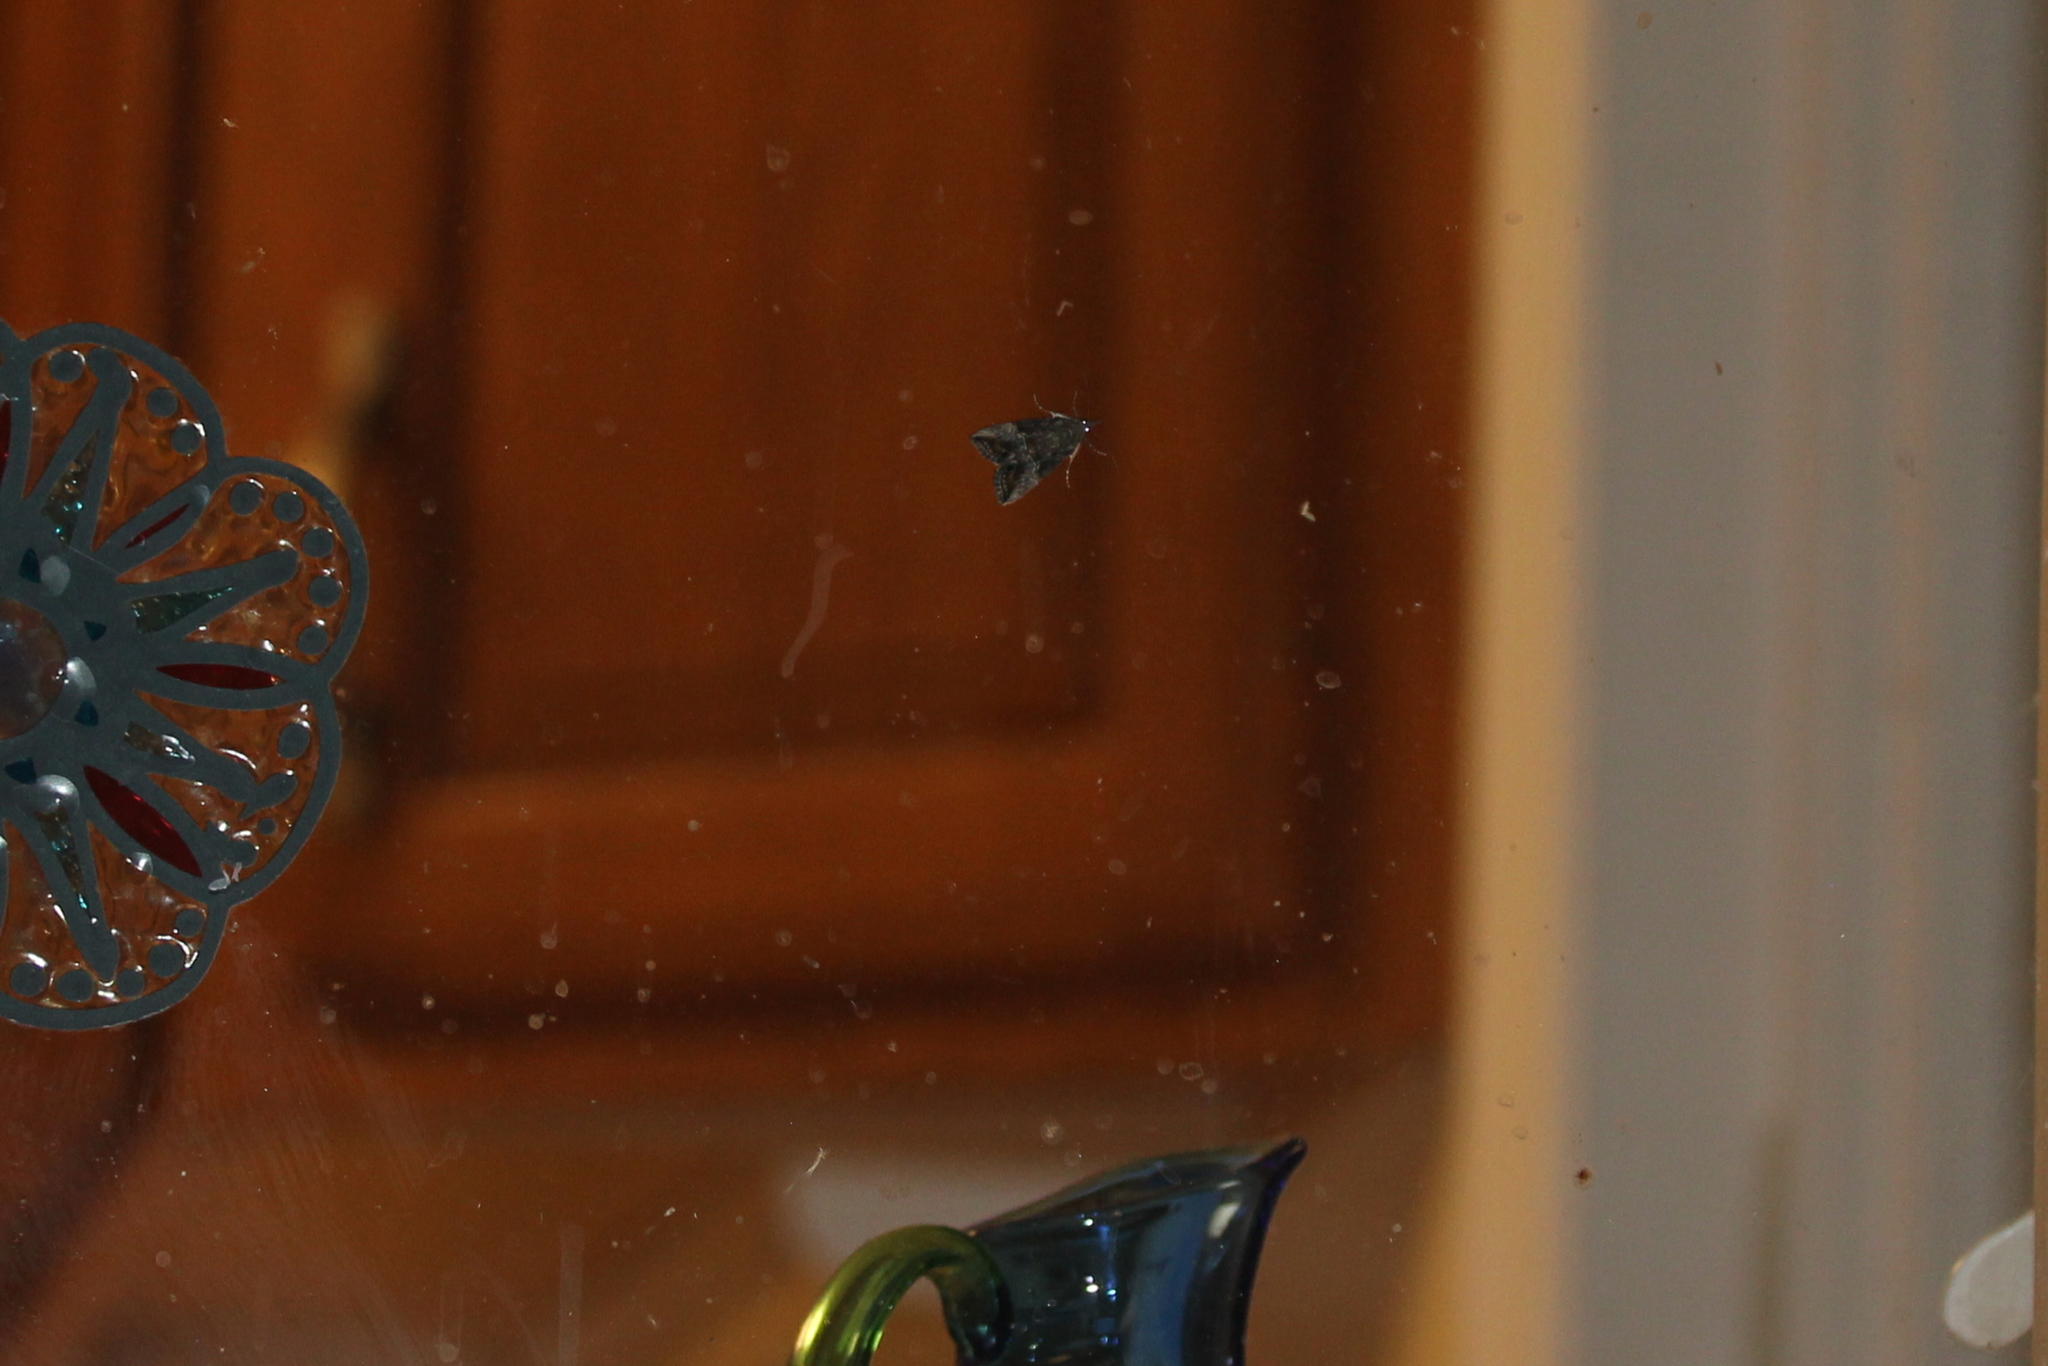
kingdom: Animalia
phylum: Arthropoda
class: Insecta
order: Lepidoptera
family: Erebidae
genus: Hypena
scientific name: Hypena scabra
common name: Green cloverworm
